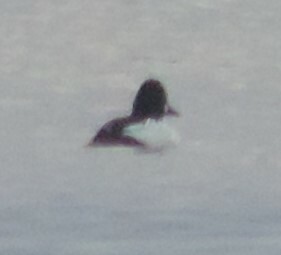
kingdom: Animalia
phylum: Chordata
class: Aves
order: Anseriformes
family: Anatidae
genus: Bucephala
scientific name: Bucephala clangula
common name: Common goldeneye
